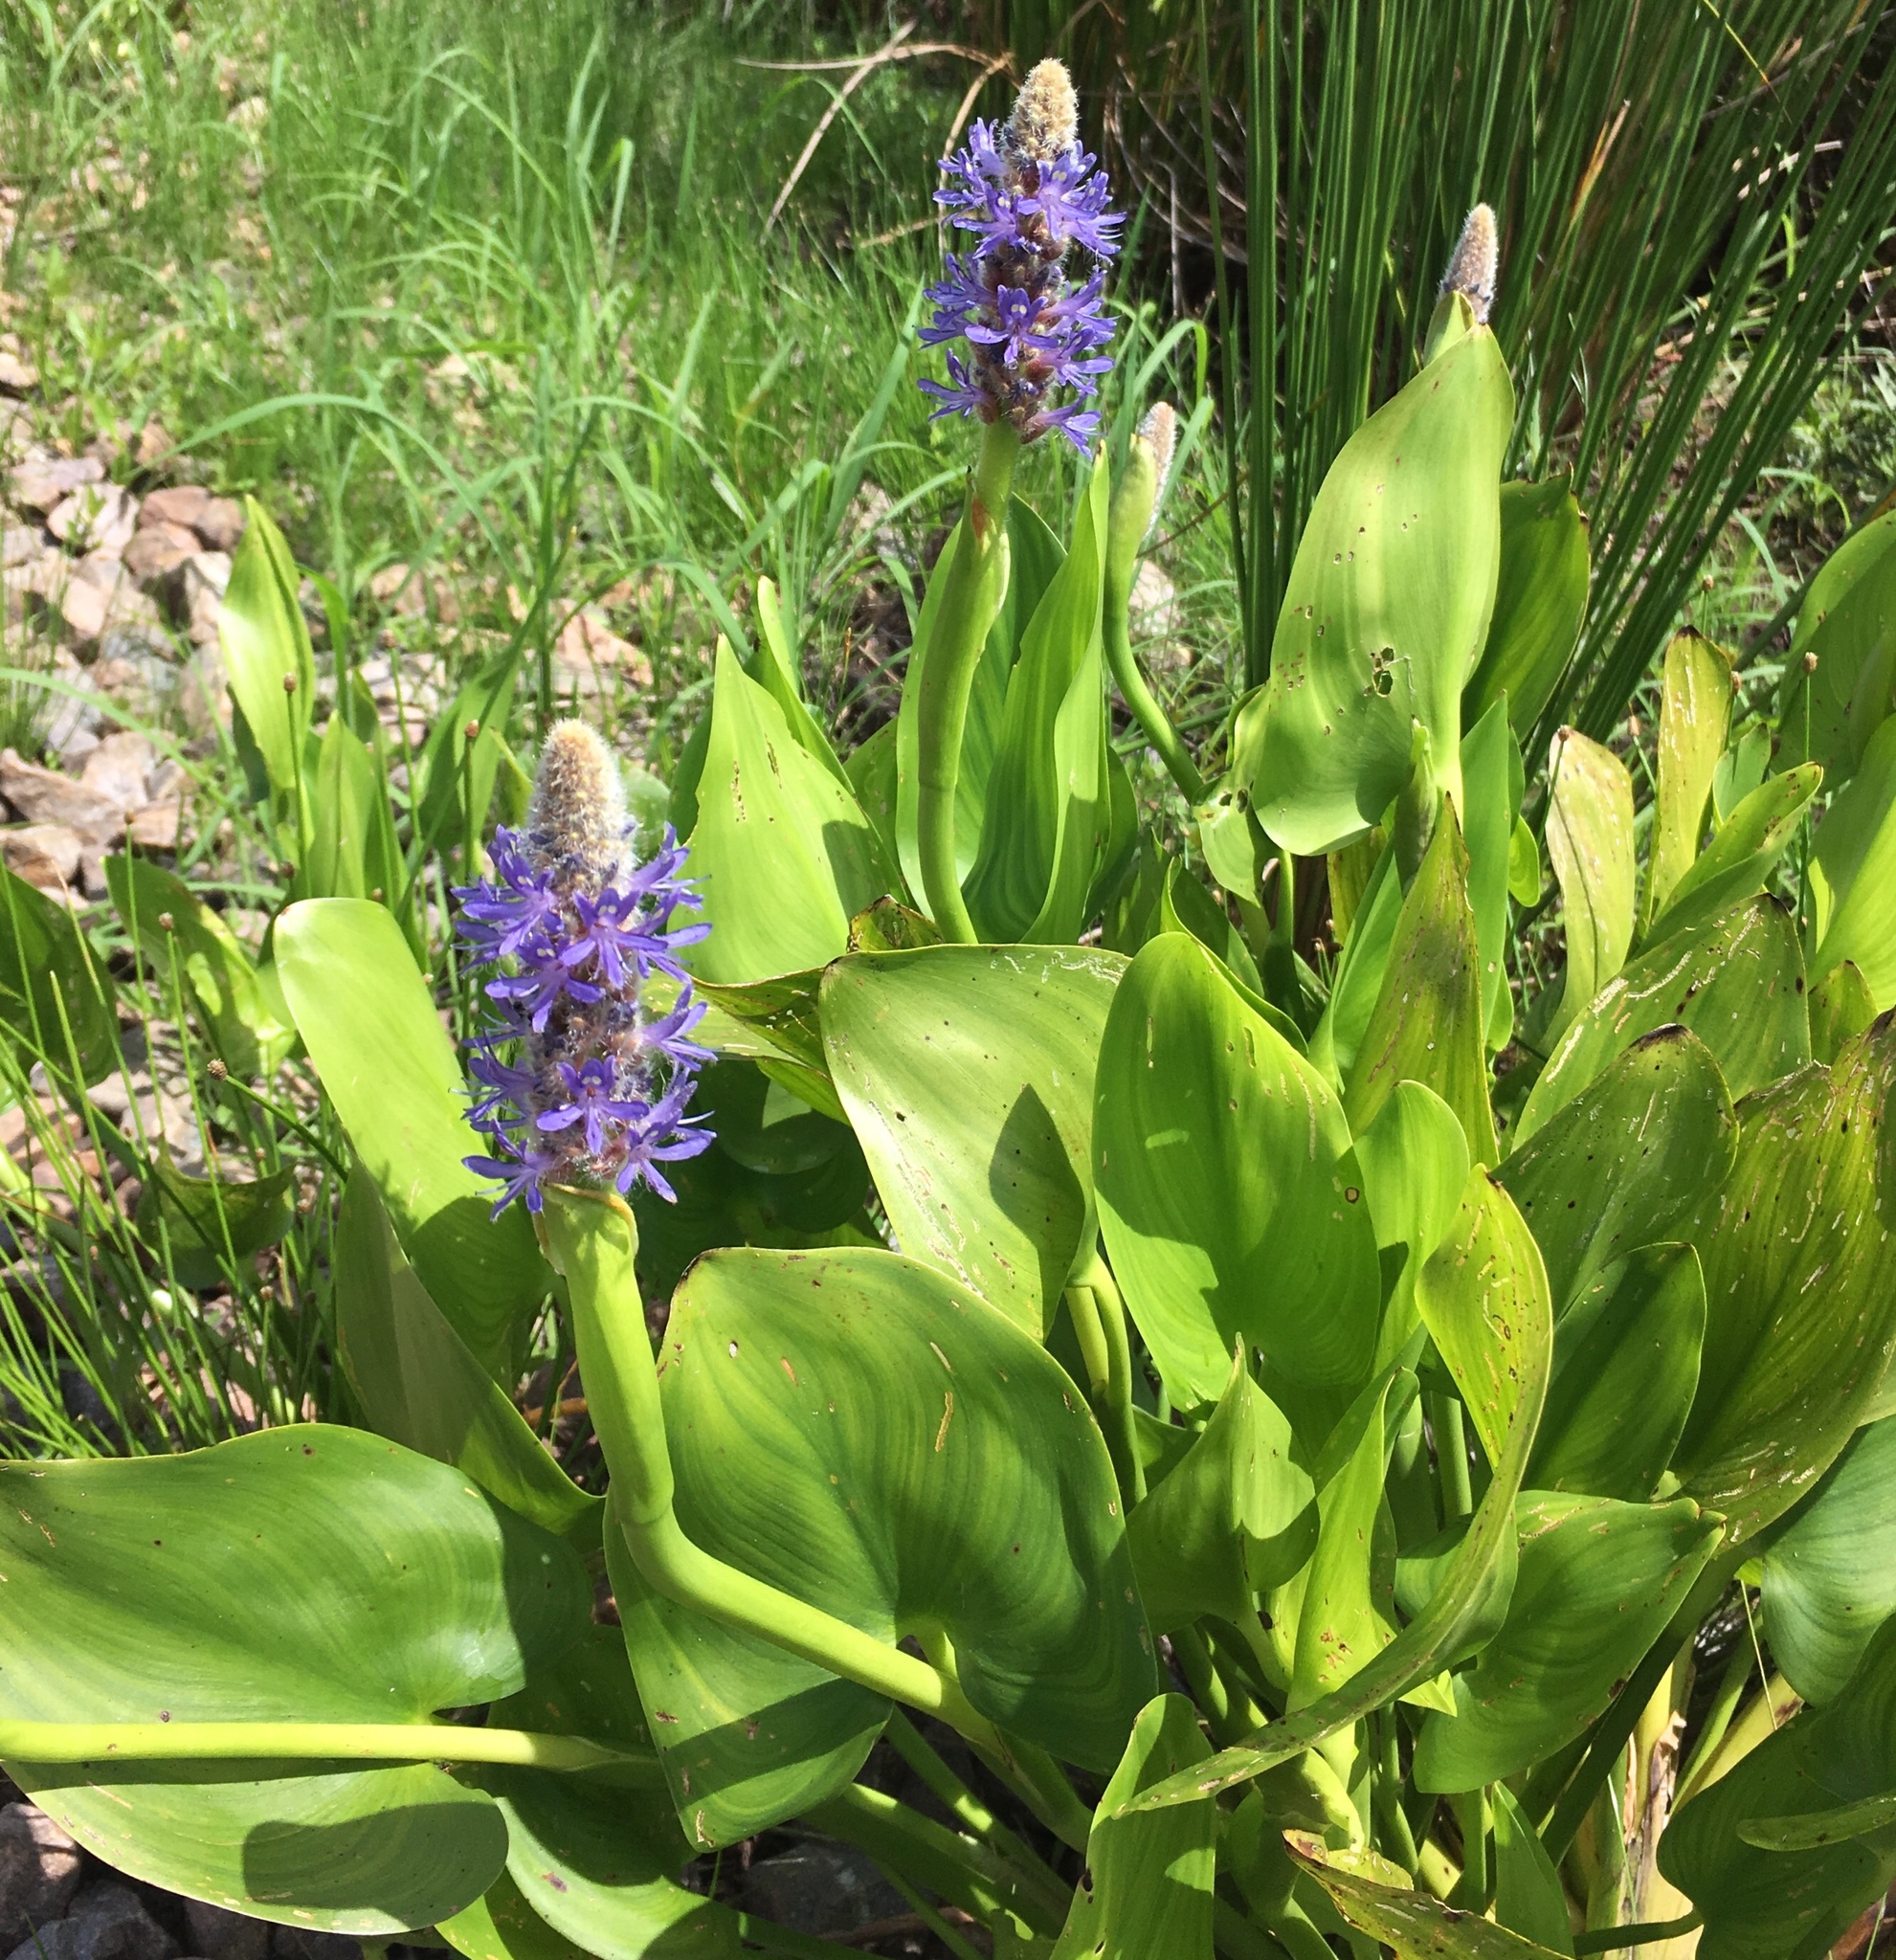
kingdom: Plantae
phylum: Tracheophyta
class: Liliopsida
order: Commelinales
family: Pontederiaceae
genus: Pontederia
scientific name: Pontederia cordata
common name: Pickerelweed
